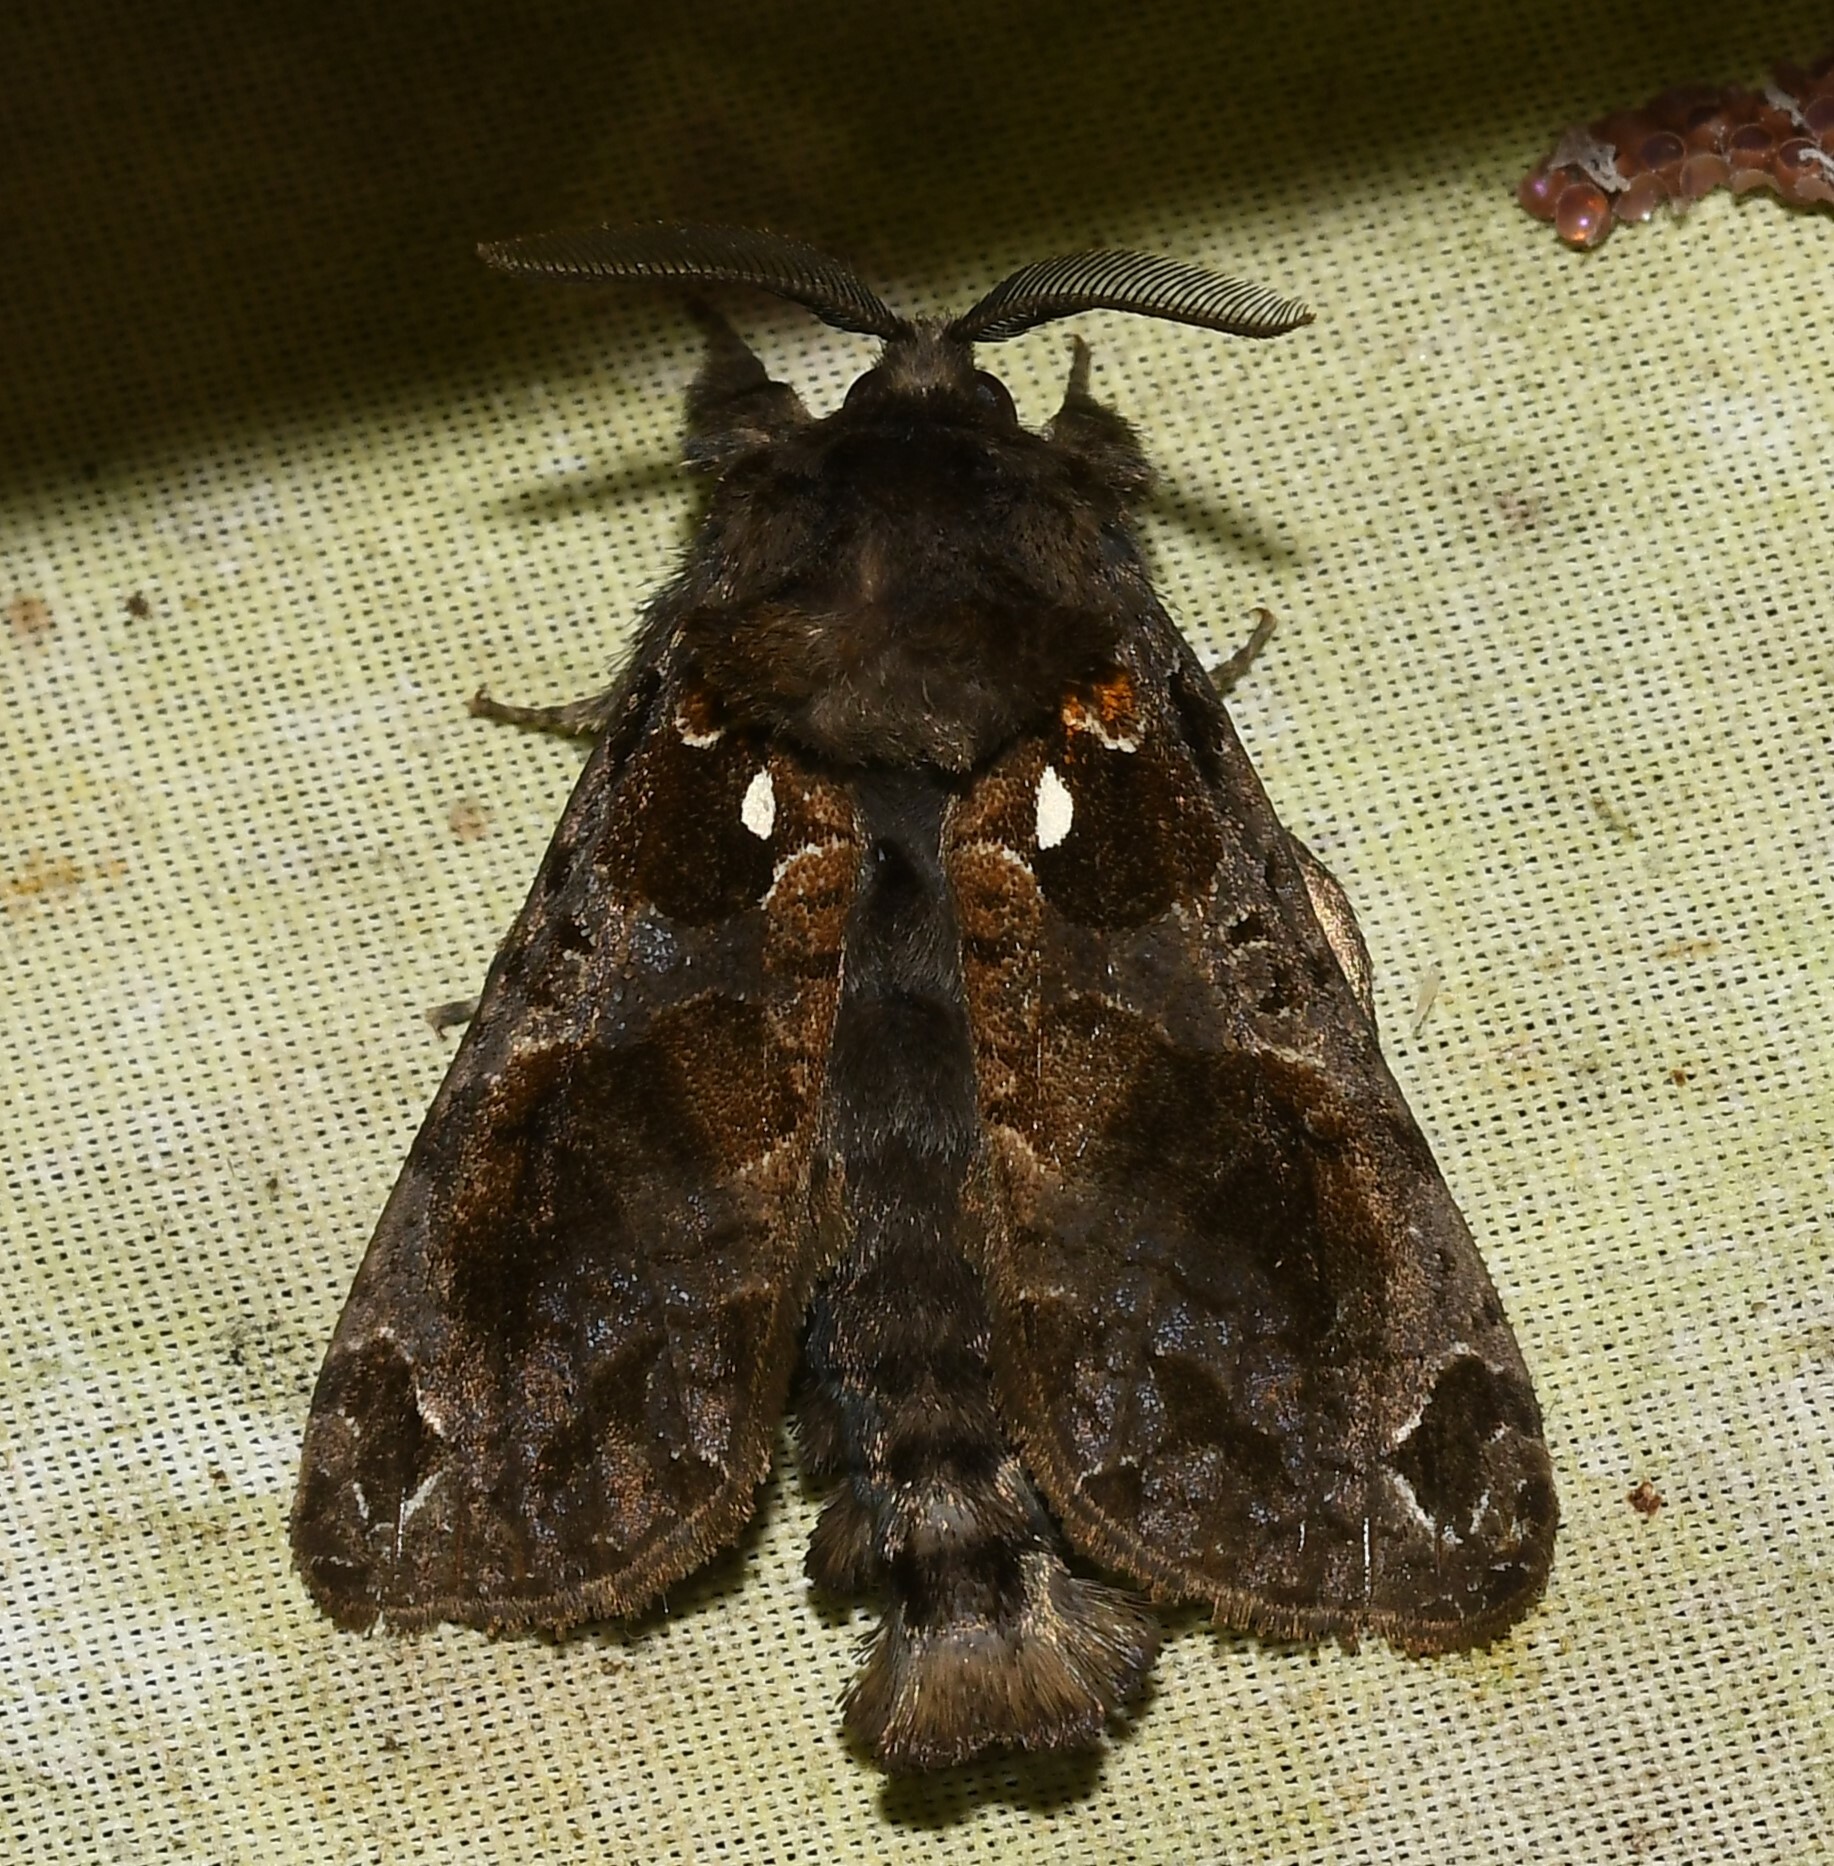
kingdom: Animalia
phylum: Arthropoda
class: Insecta
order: Lepidoptera
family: Cossidae
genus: Langsdorfia
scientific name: Langsdorfia
